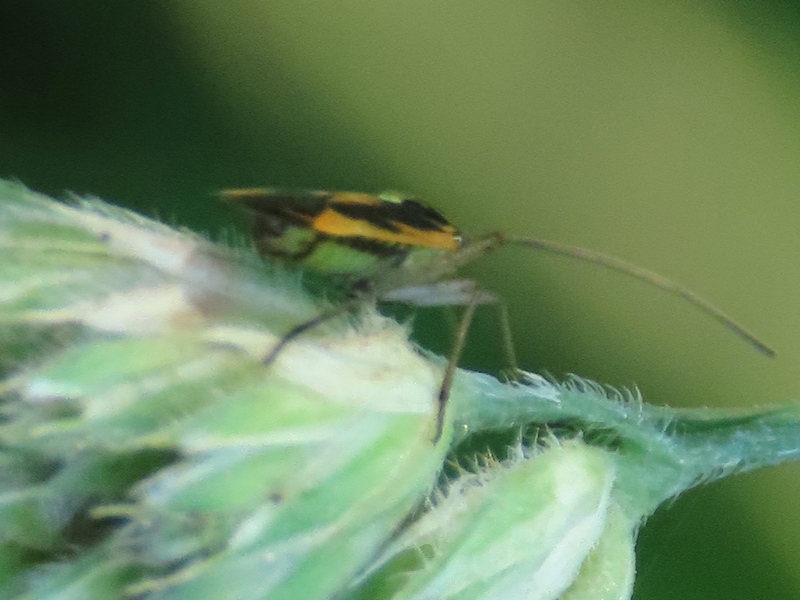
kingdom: Animalia
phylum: Arthropoda
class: Insecta
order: Hemiptera
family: Miridae
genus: Stenotus
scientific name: Stenotus binotatus
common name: Plant bug
